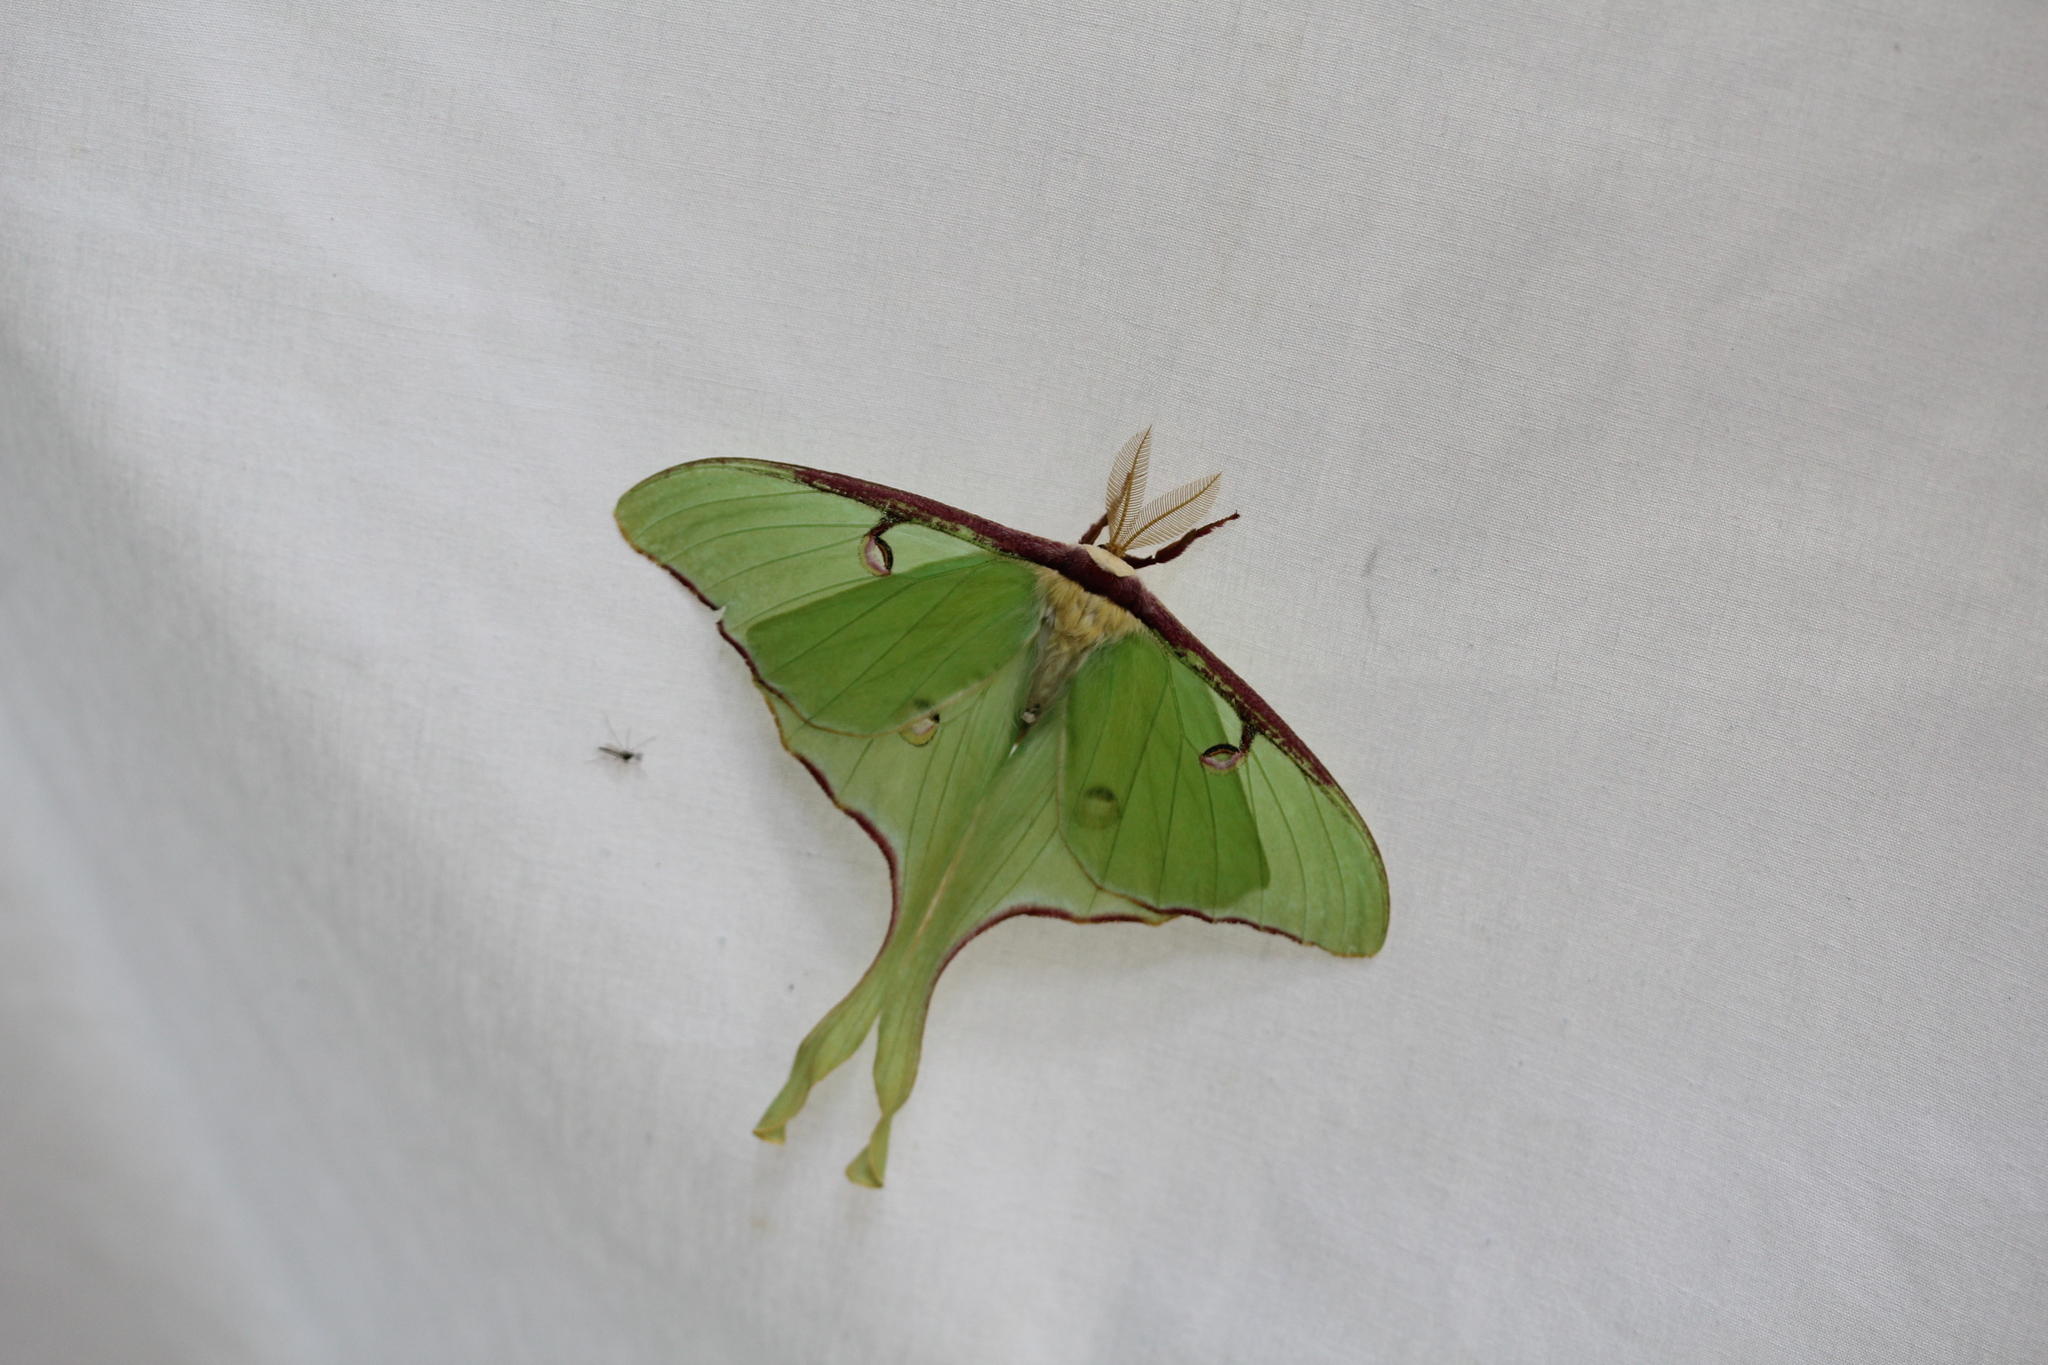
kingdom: Animalia
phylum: Arthropoda
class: Insecta
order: Lepidoptera
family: Saturniidae
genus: Actias
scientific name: Actias luna
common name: Luna moth
